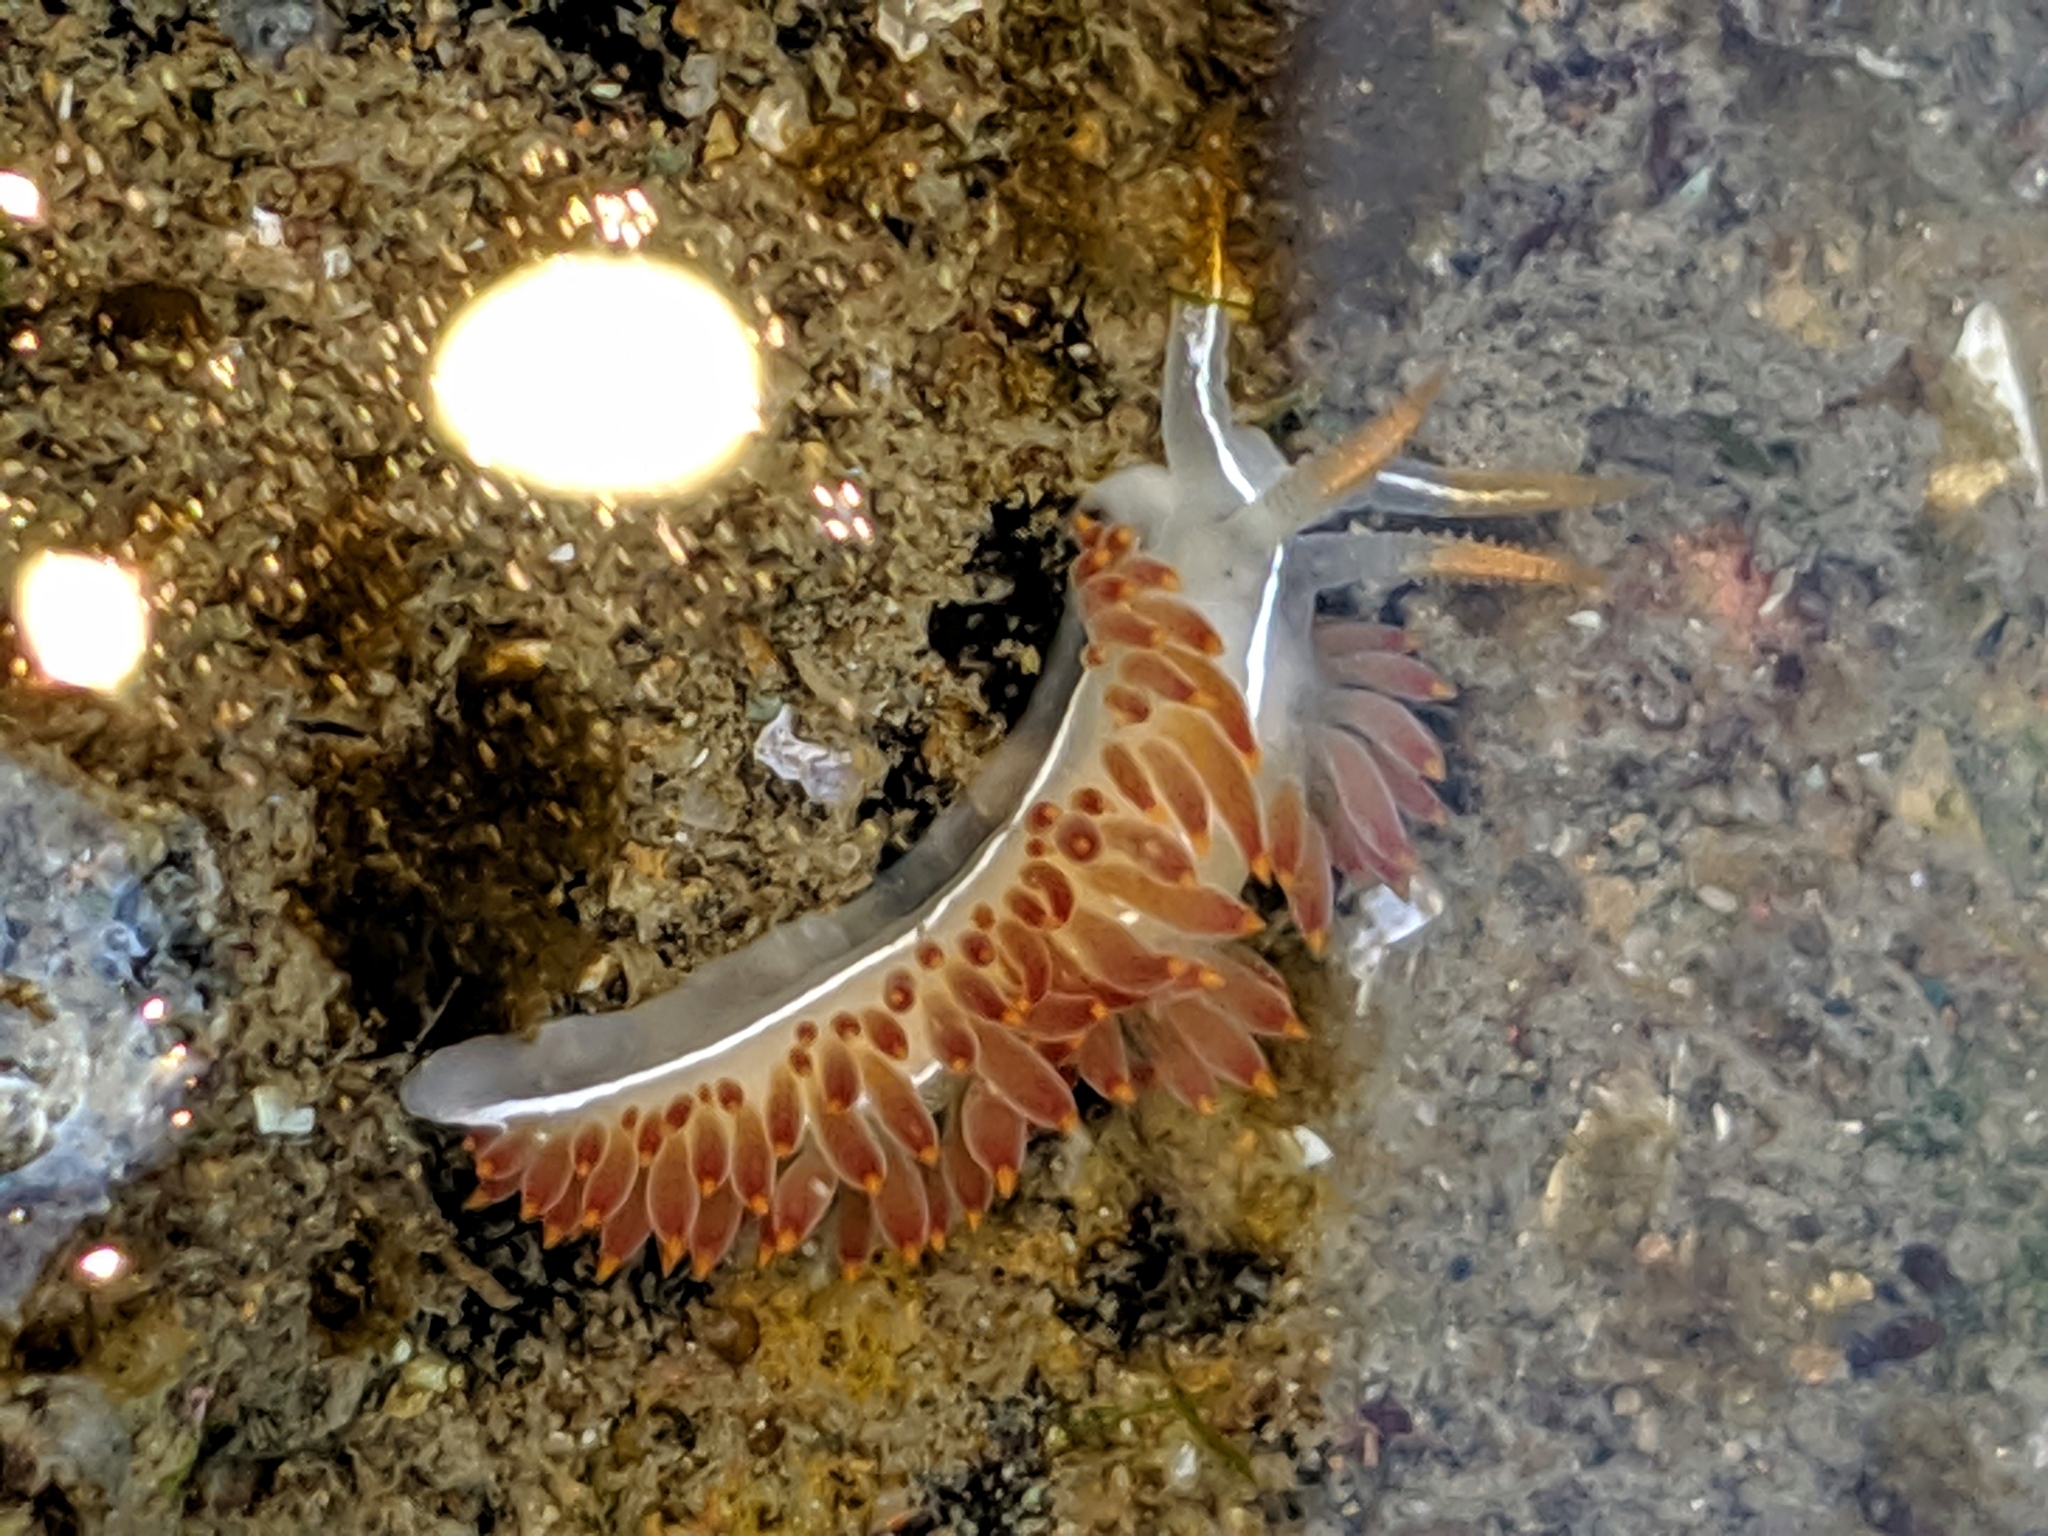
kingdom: Animalia
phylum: Mollusca
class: Gastropoda
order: Nudibranchia
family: Coryphellidae
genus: Coryphella
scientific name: Coryphella trilineata
